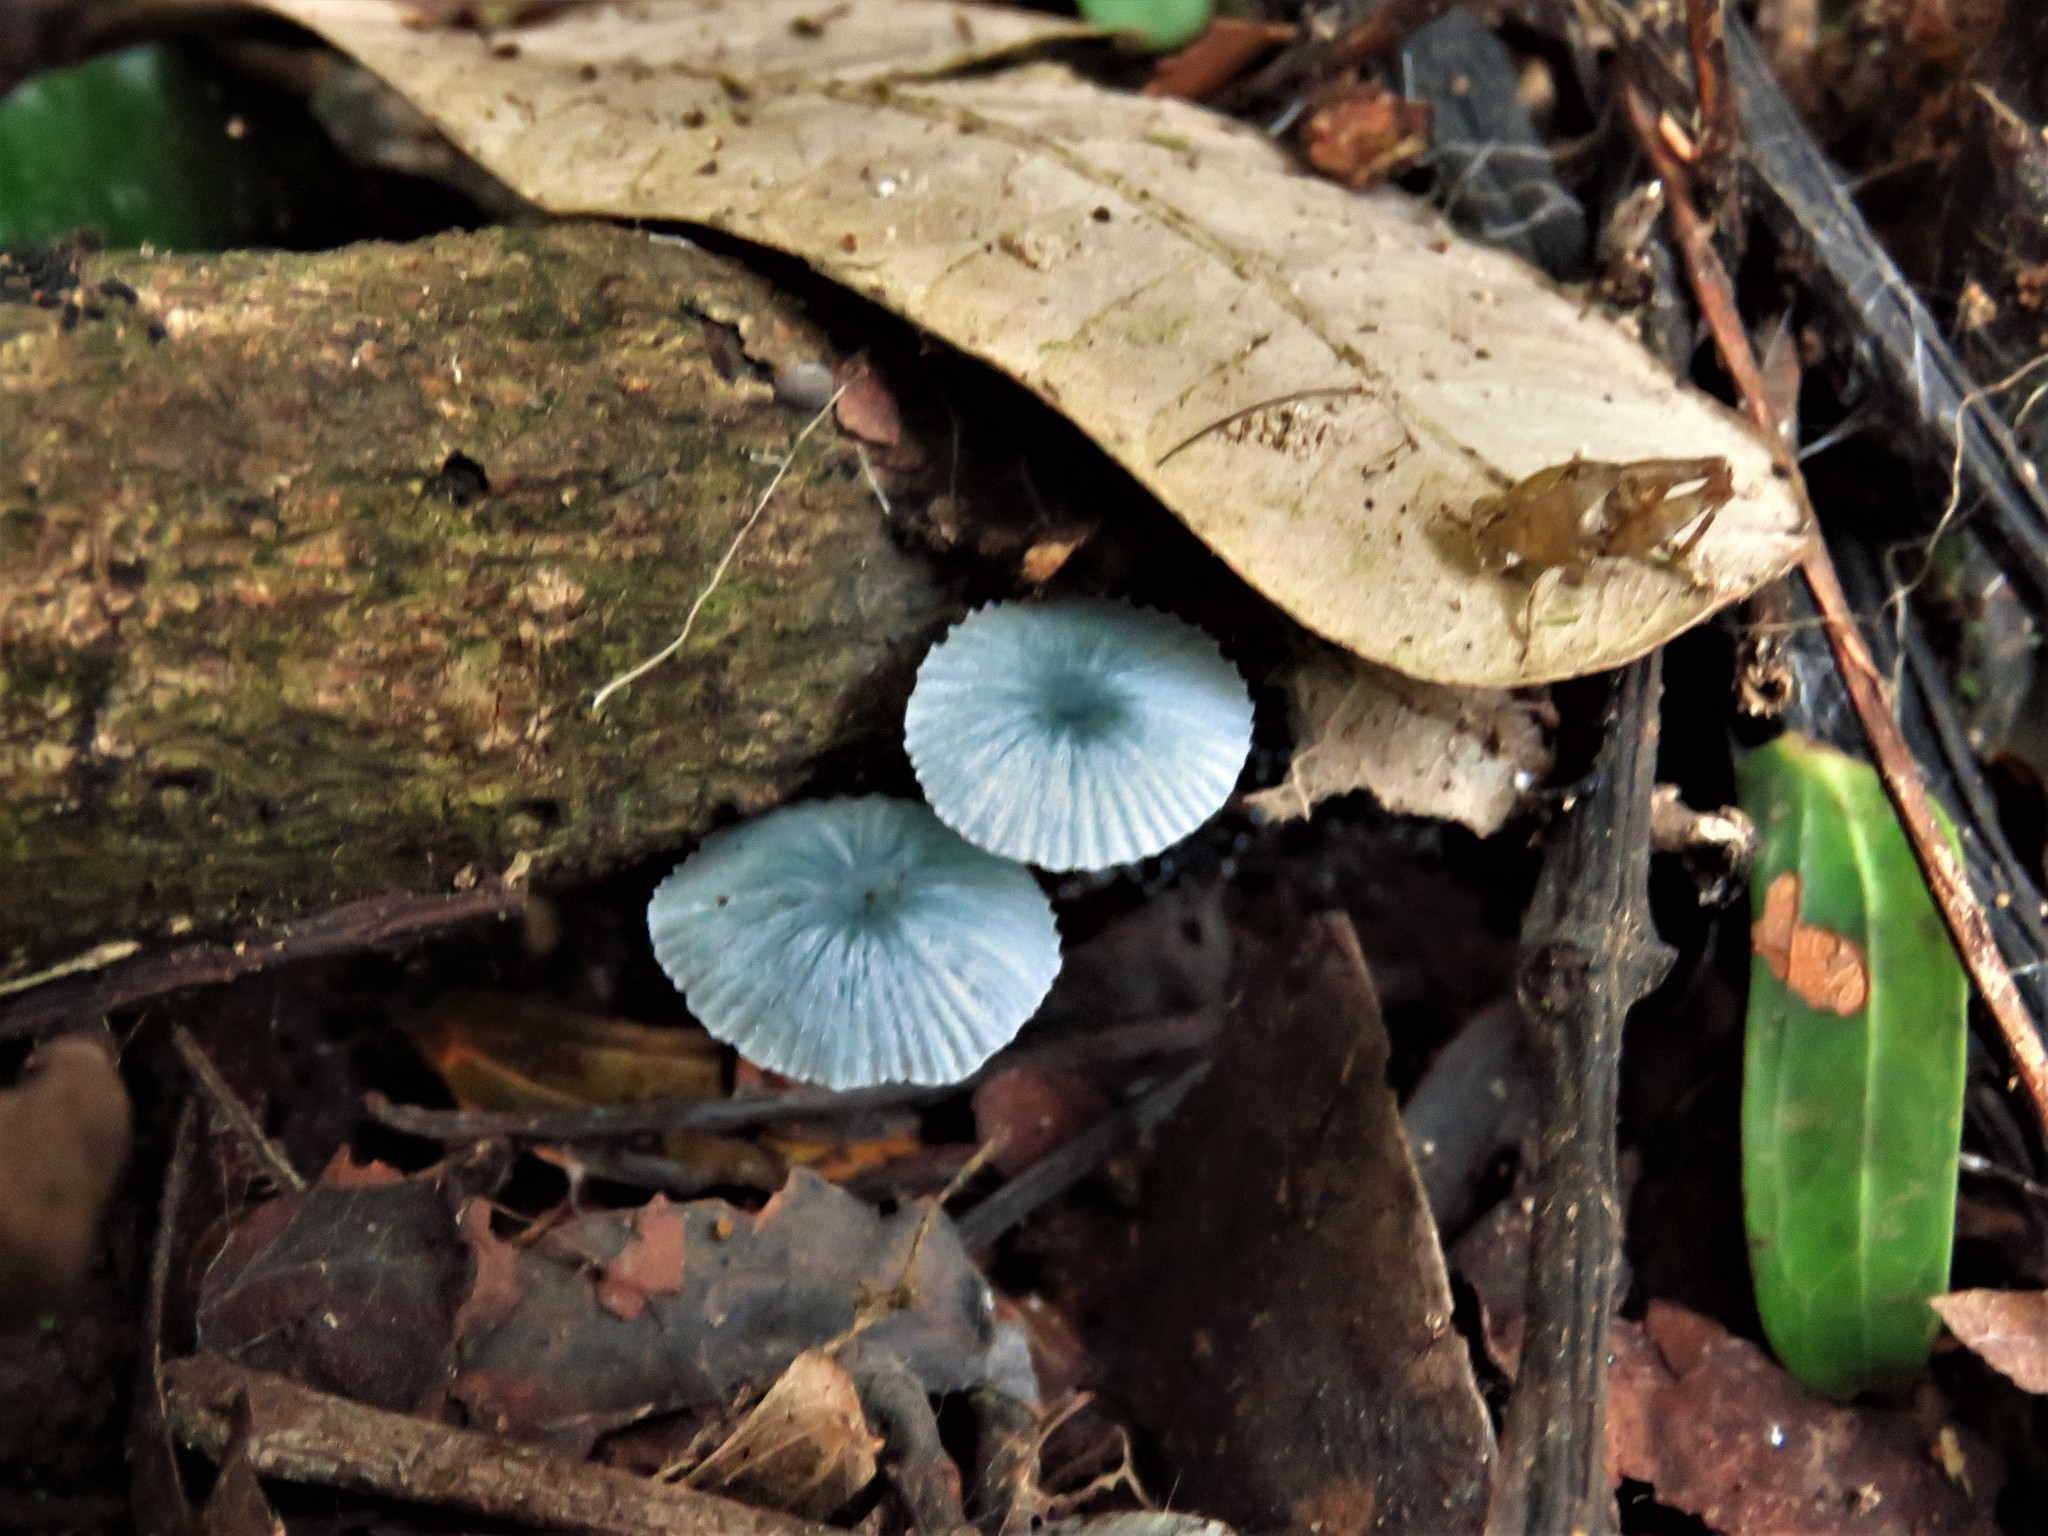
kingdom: Fungi
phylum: Basidiomycota
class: Agaricomycetes
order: Agaricales
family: Marasmiaceae
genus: Clitocybula
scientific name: Clitocybula azurea
